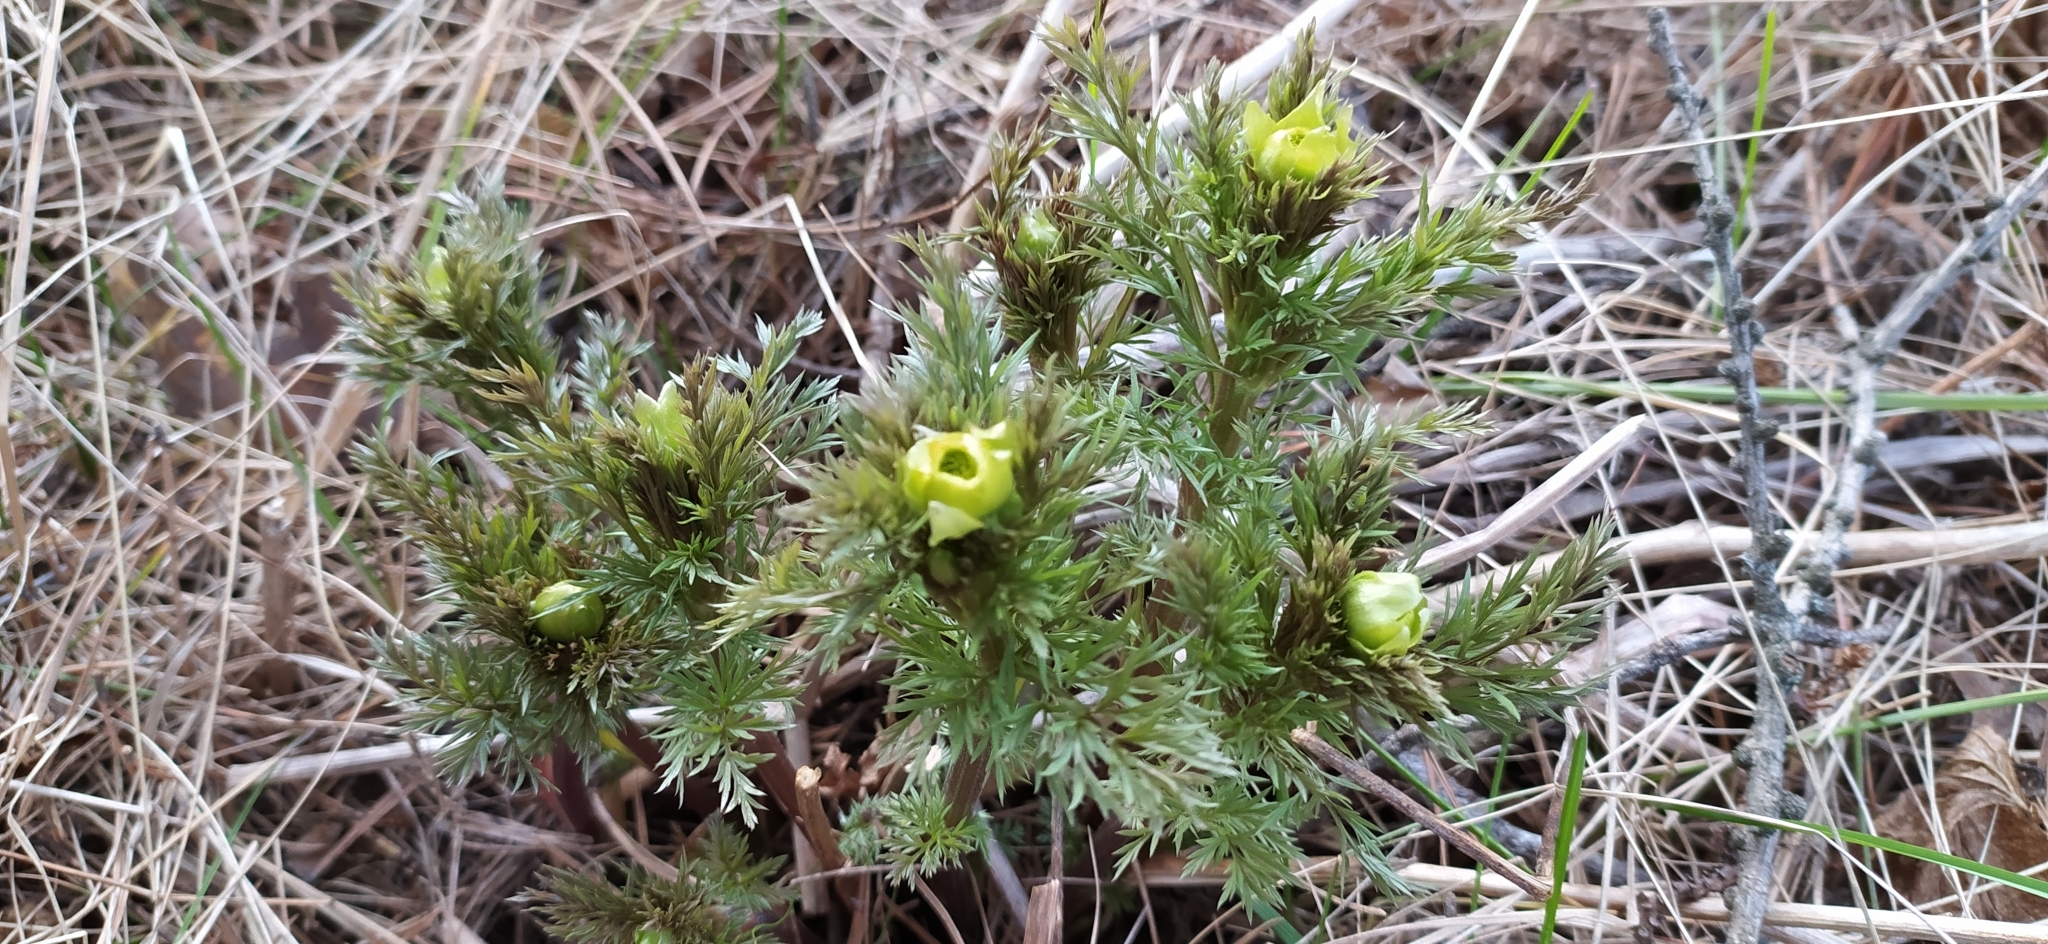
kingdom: Plantae
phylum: Tracheophyta
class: Magnoliopsida
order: Ranunculales
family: Ranunculaceae
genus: Adonis
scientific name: Adonis
